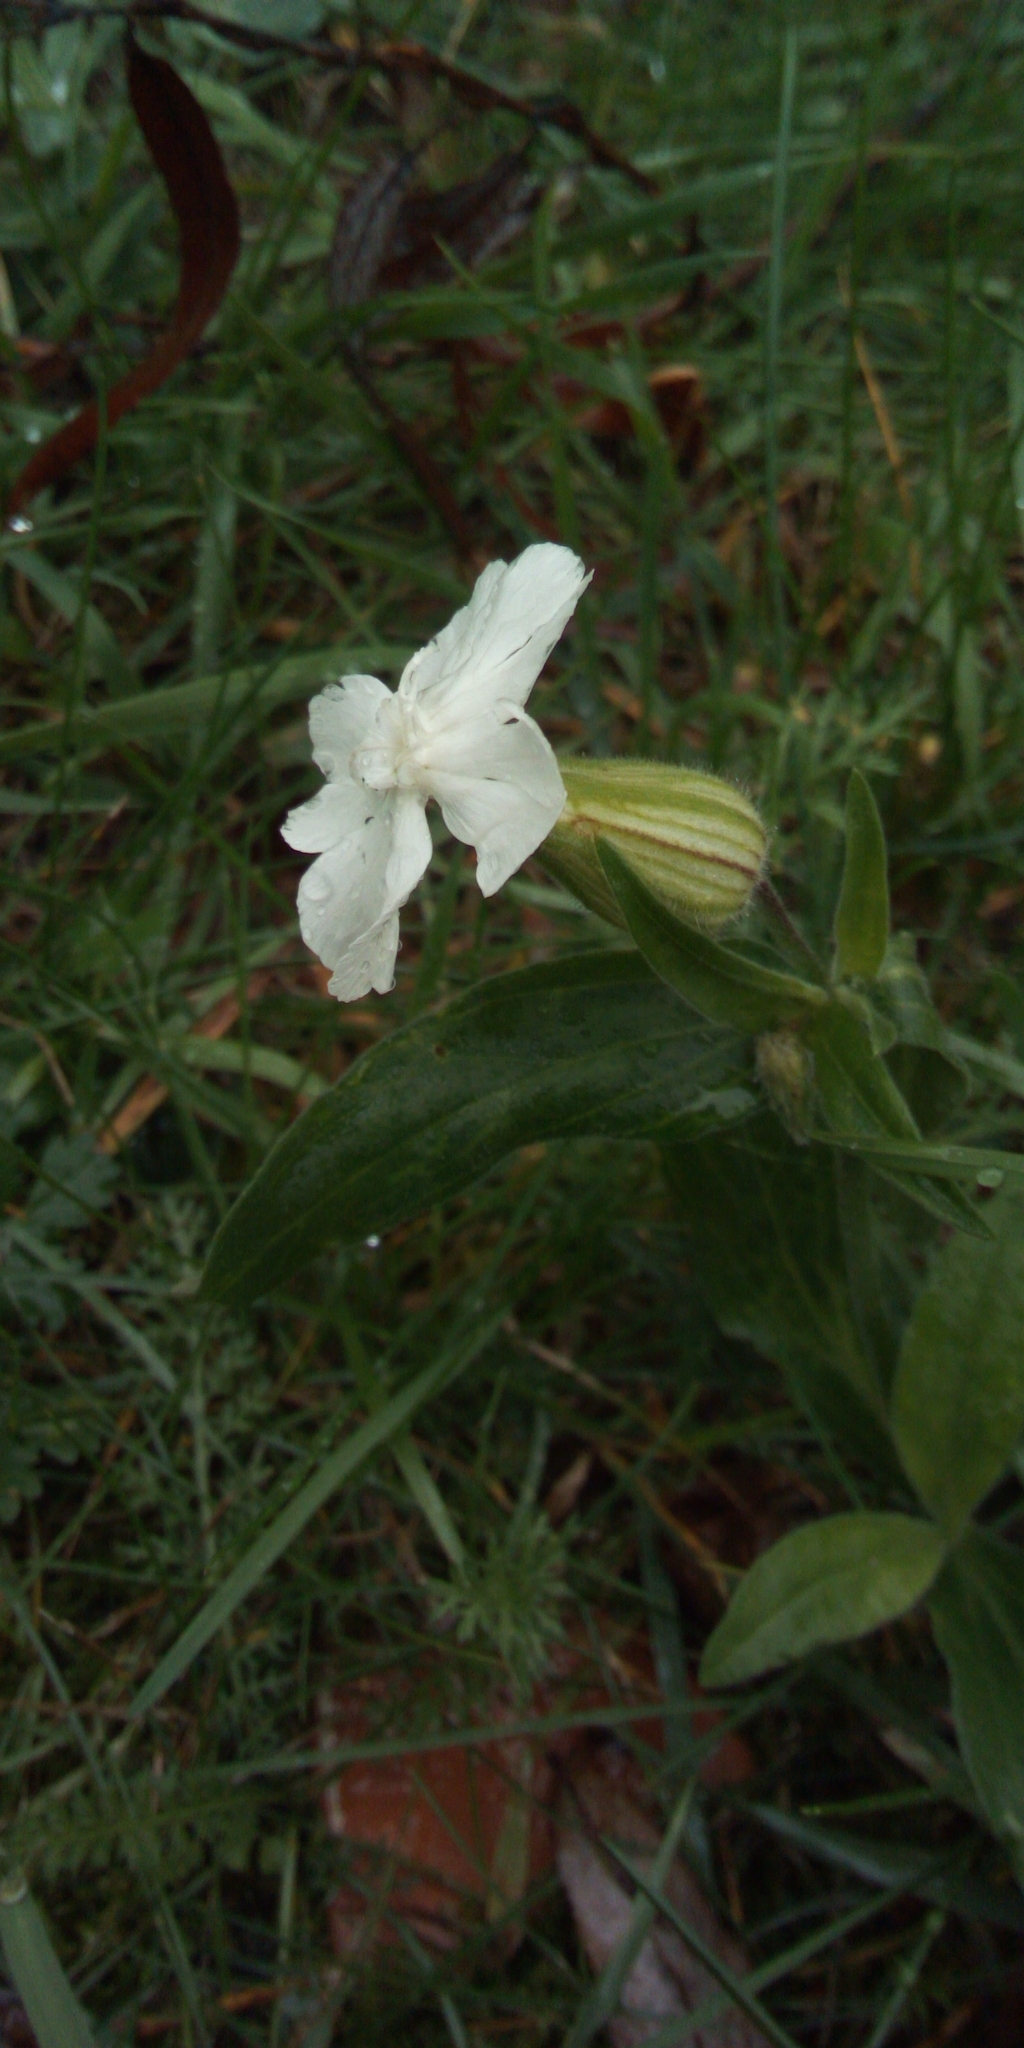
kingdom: Plantae
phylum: Tracheophyta
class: Magnoliopsida
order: Caryophyllales
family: Caryophyllaceae
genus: Silene
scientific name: Silene latifolia
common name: White campion
